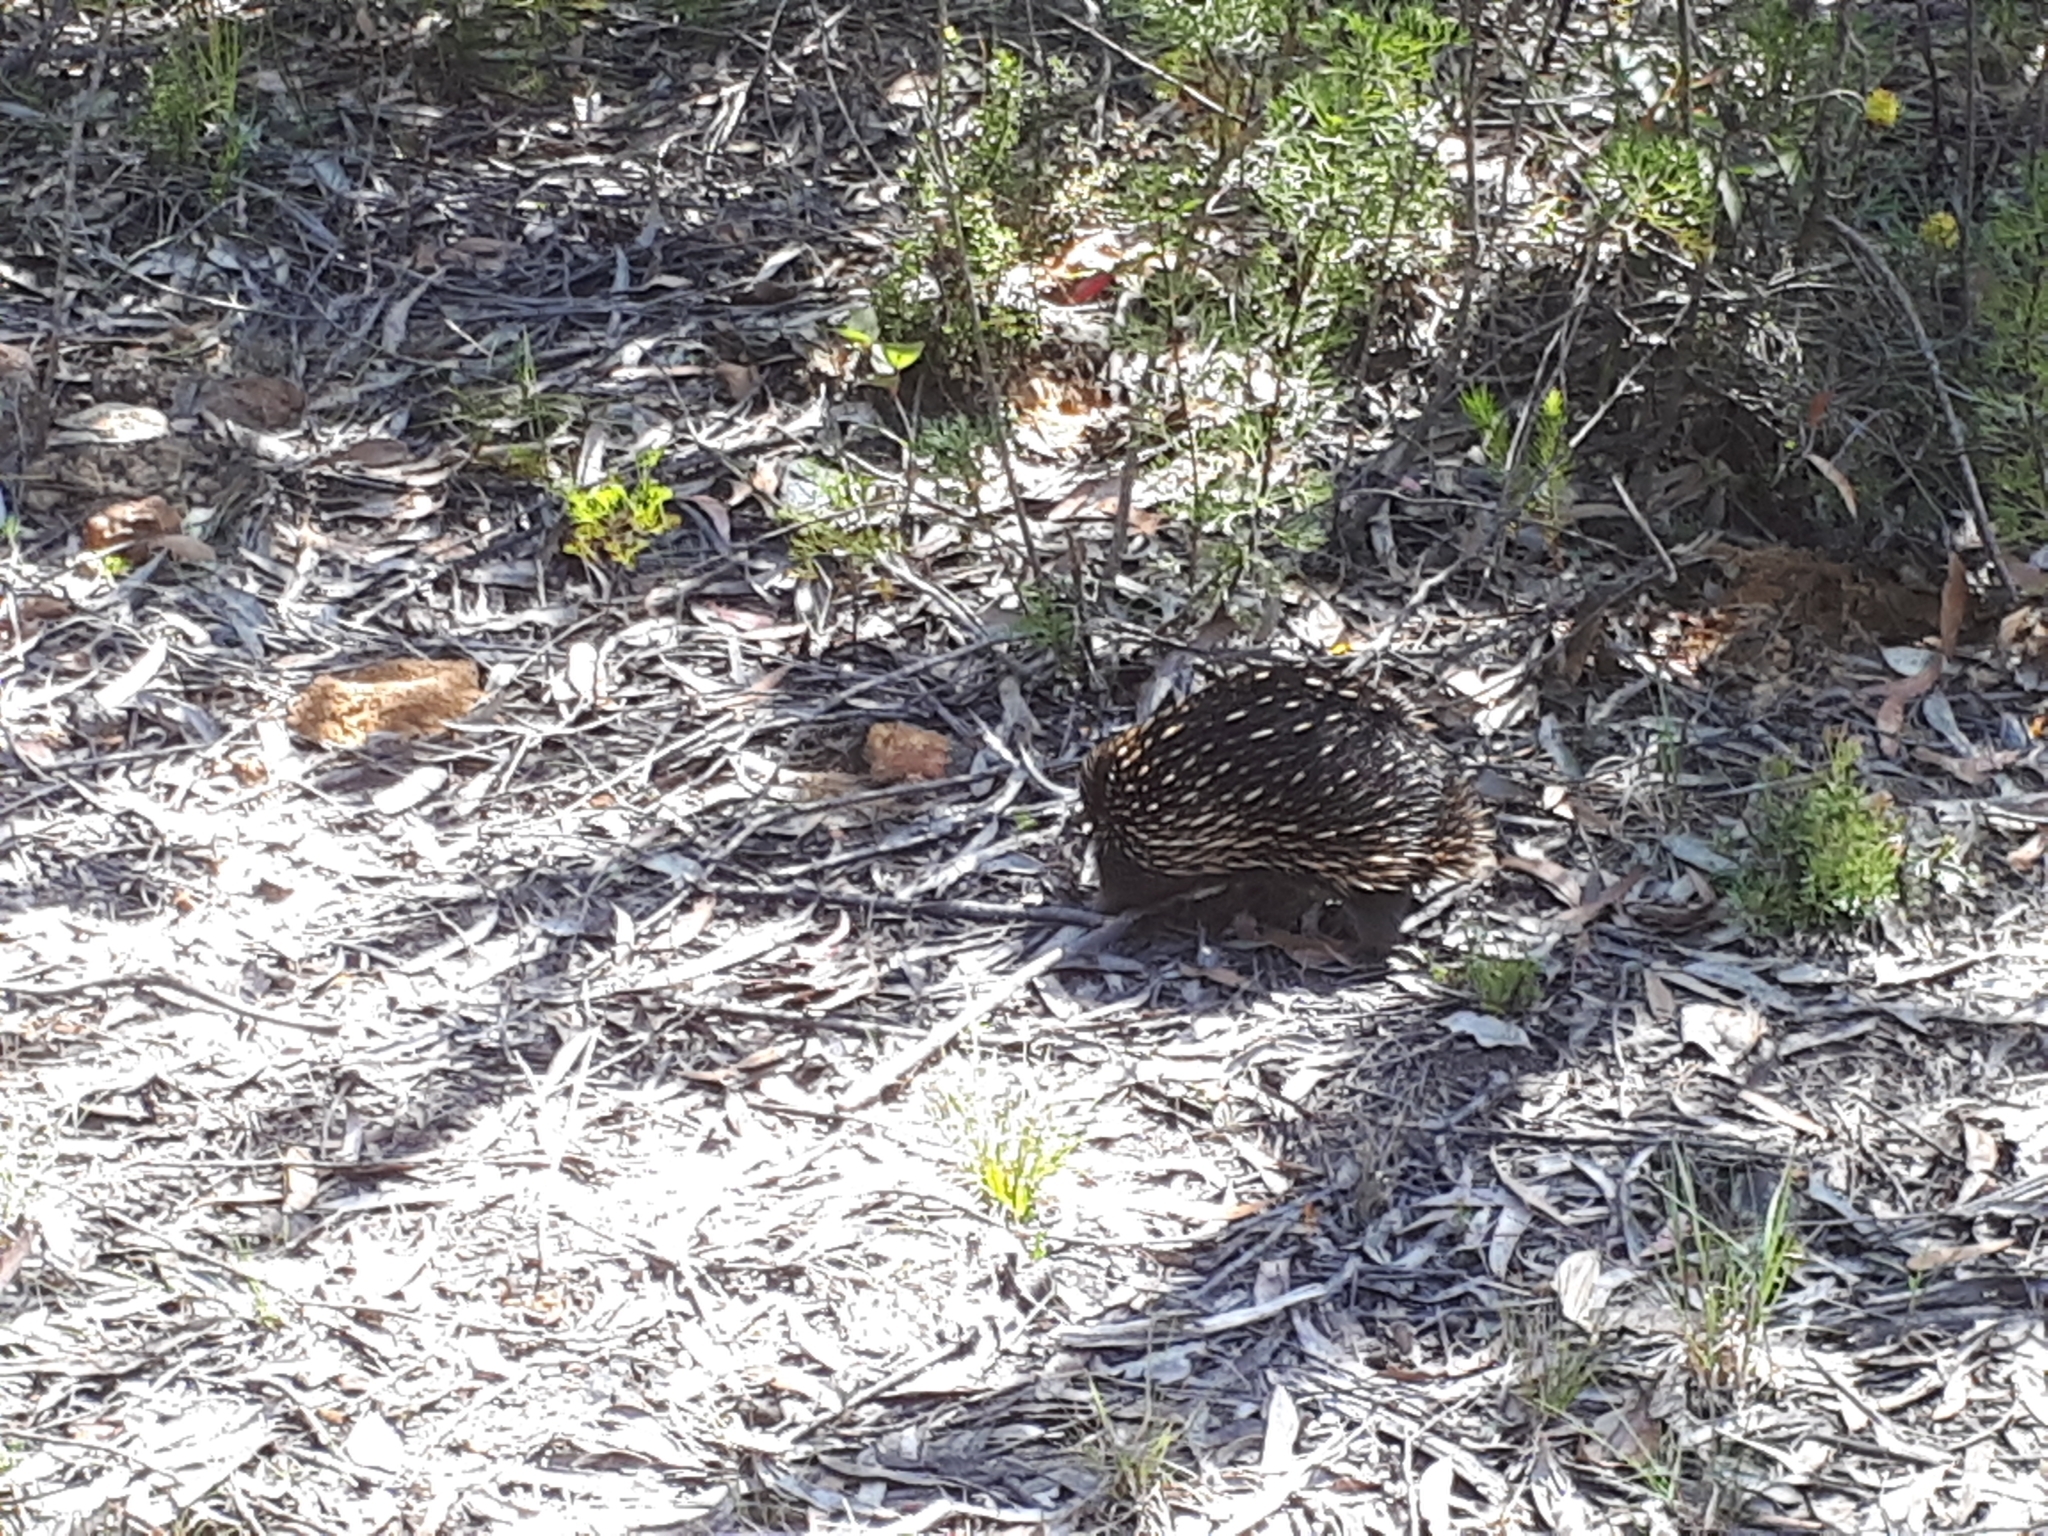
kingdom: Animalia
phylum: Chordata
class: Mammalia
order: Monotremata
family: Tachyglossidae
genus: Tachyglossus
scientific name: Tachyglossus aculeatus
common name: Short-beaked echidna
